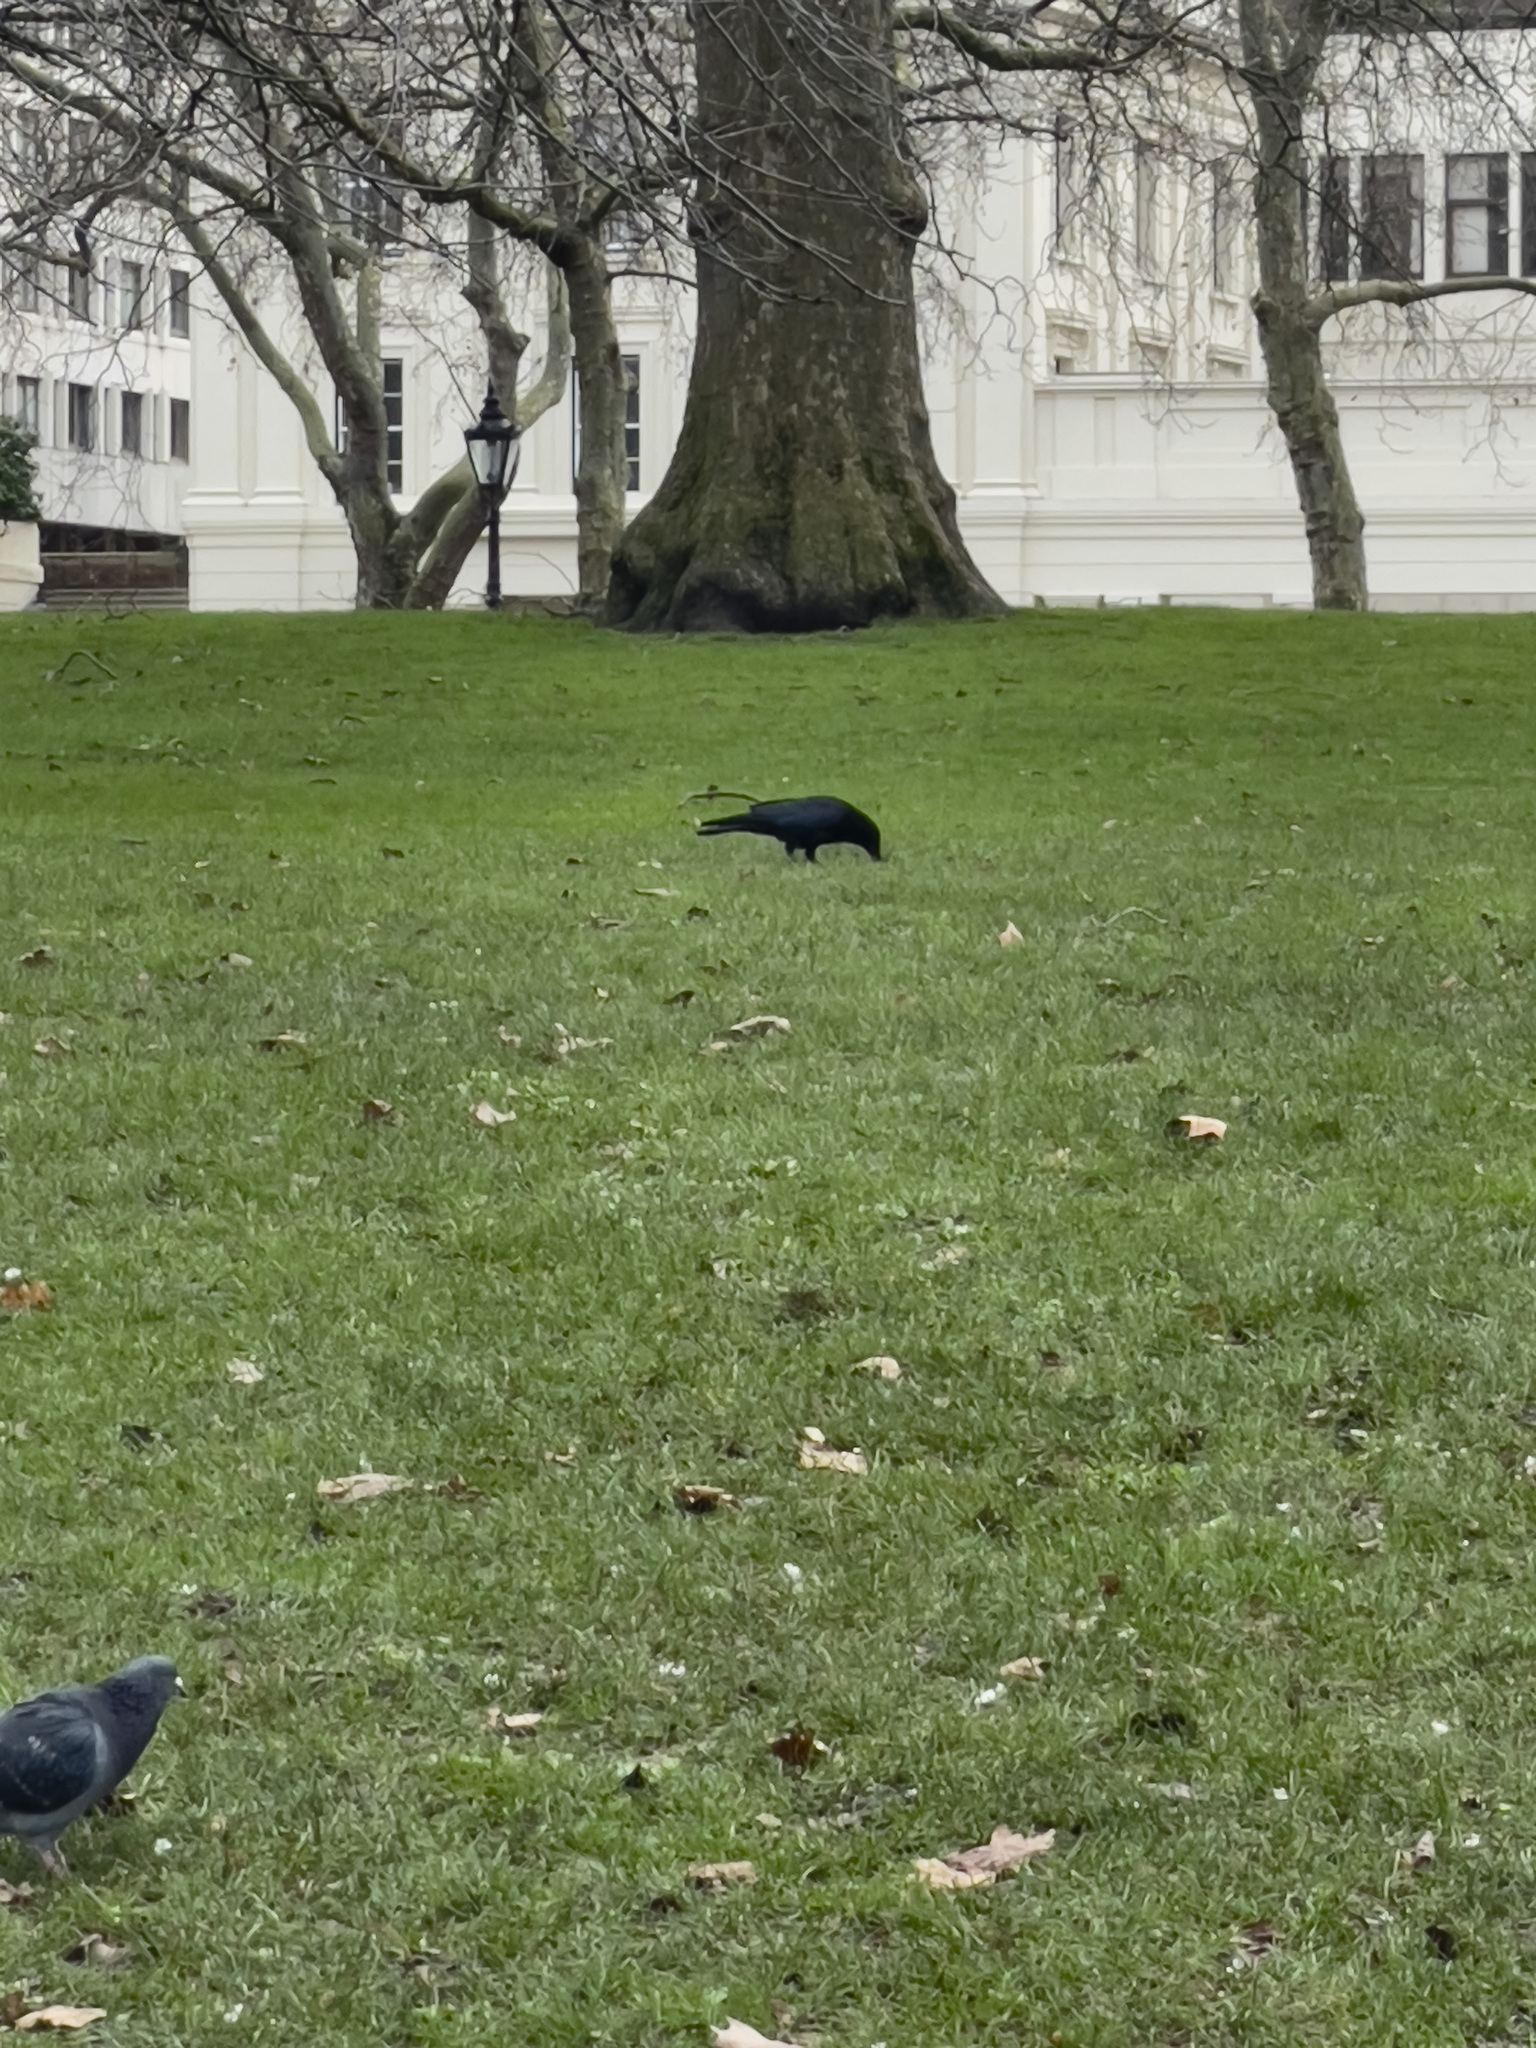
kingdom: Animalia
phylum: Chordata
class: Aves
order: Passeriformes
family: Corvidae
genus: Corvus
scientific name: Corvus corone
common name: Carrion crow
